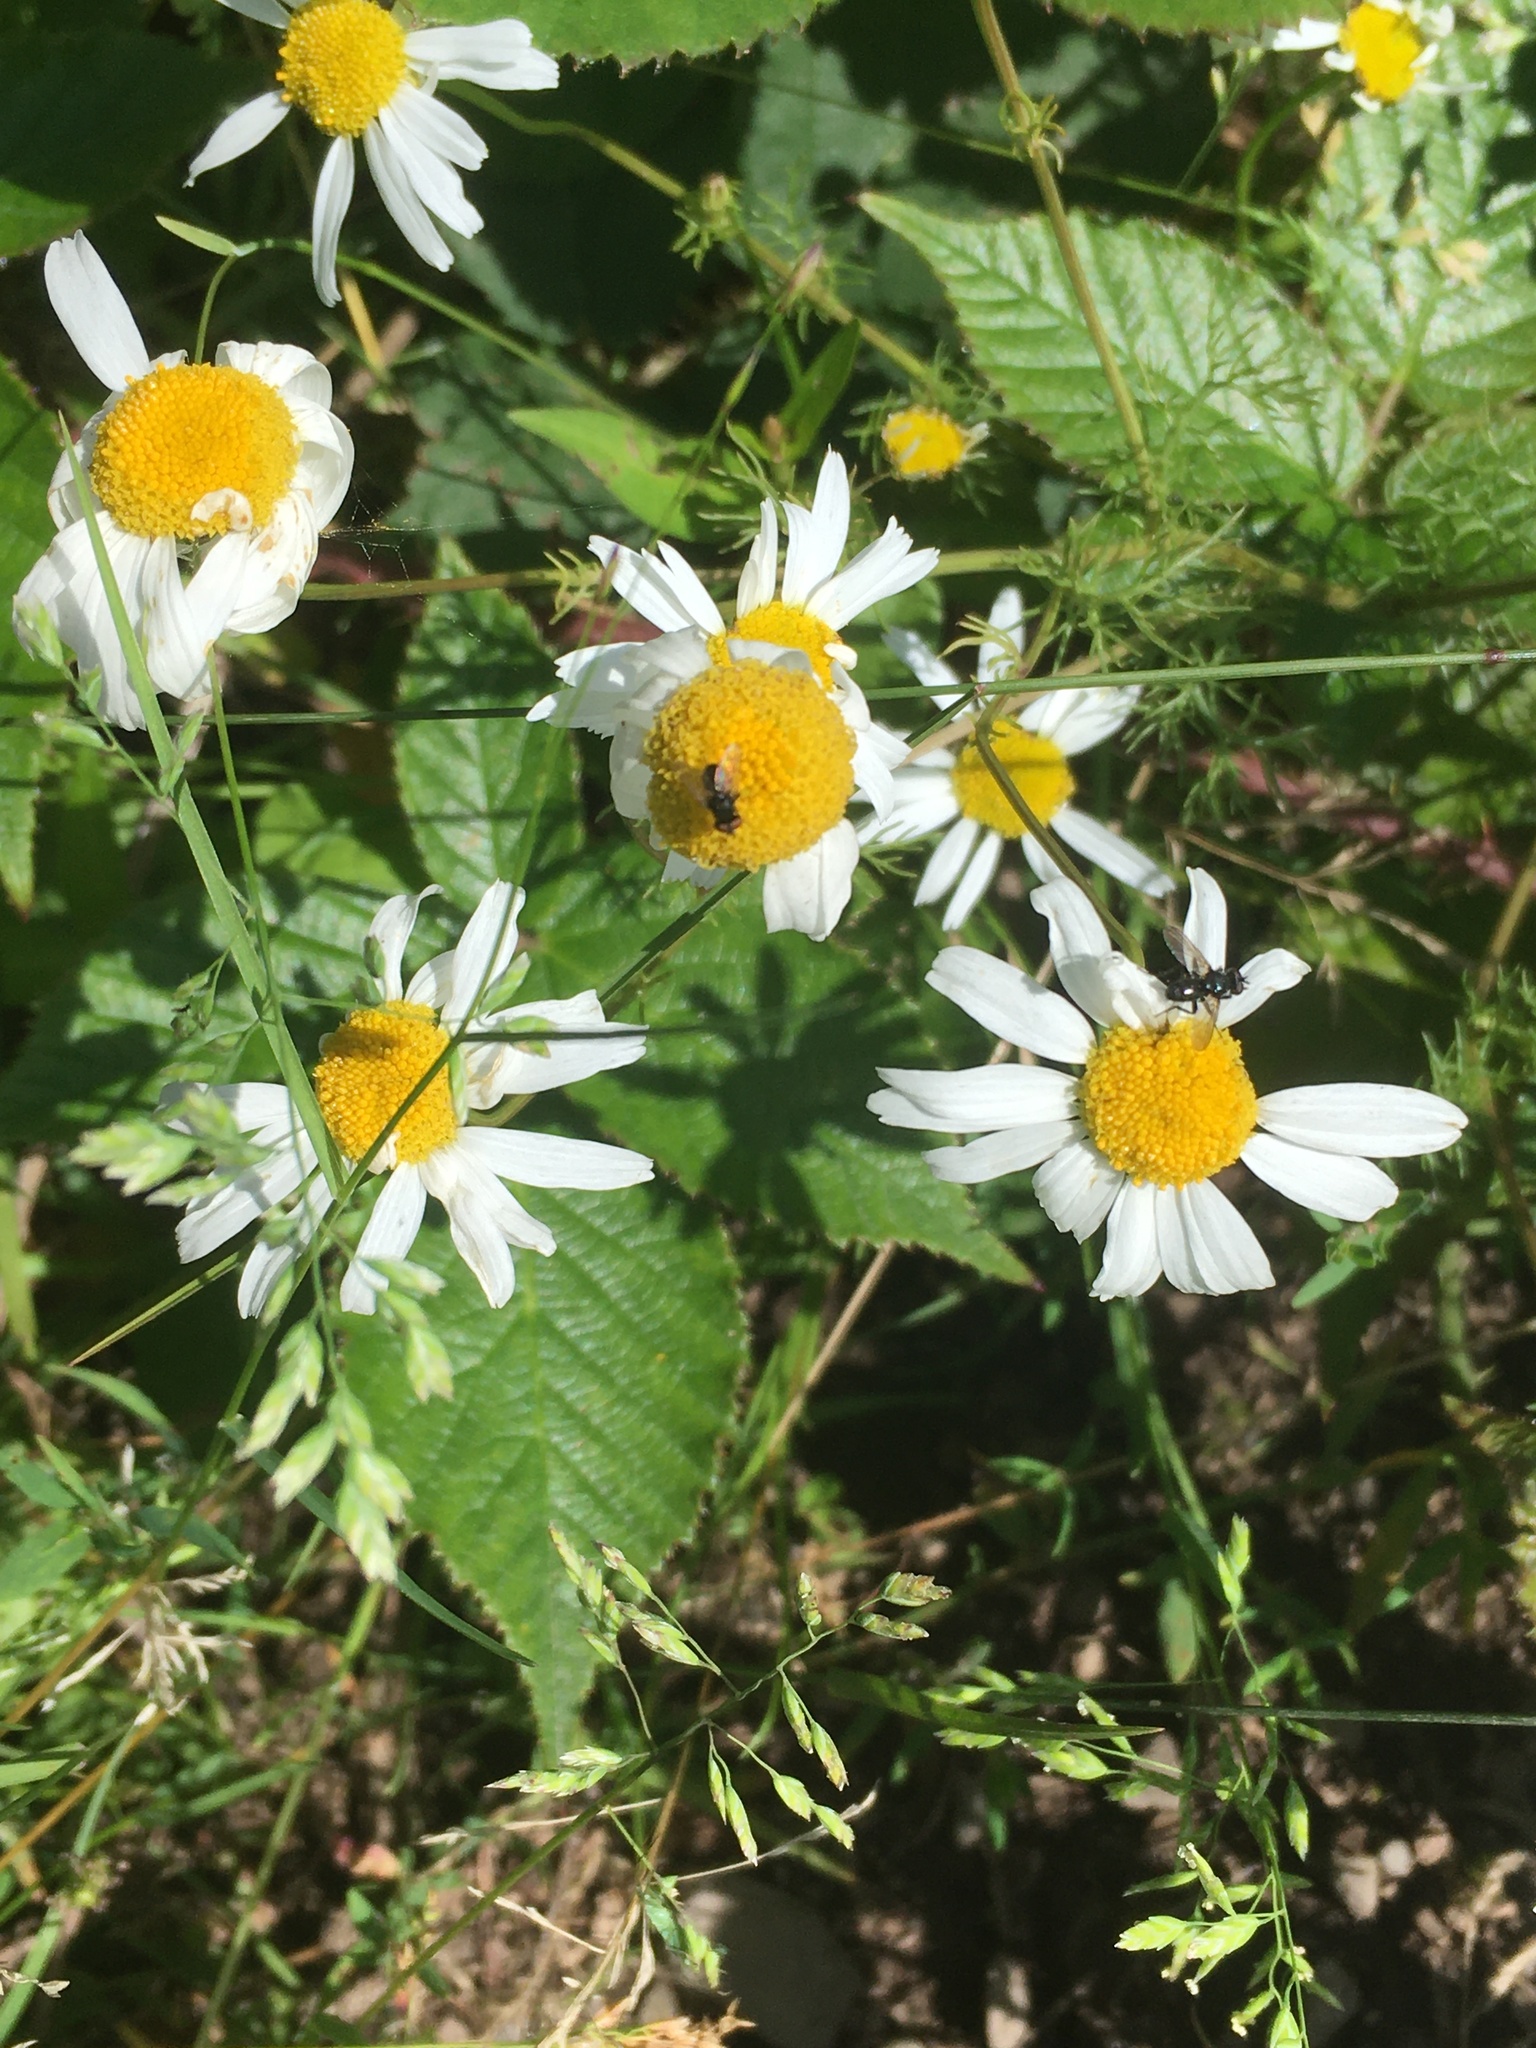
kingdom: Plantae
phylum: Tracheophyta
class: Magnoliopsida
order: Asterales
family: Asteraceae
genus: Tripleurospermum
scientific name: Tripleurospermum inodorum
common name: Scentless mayweed
